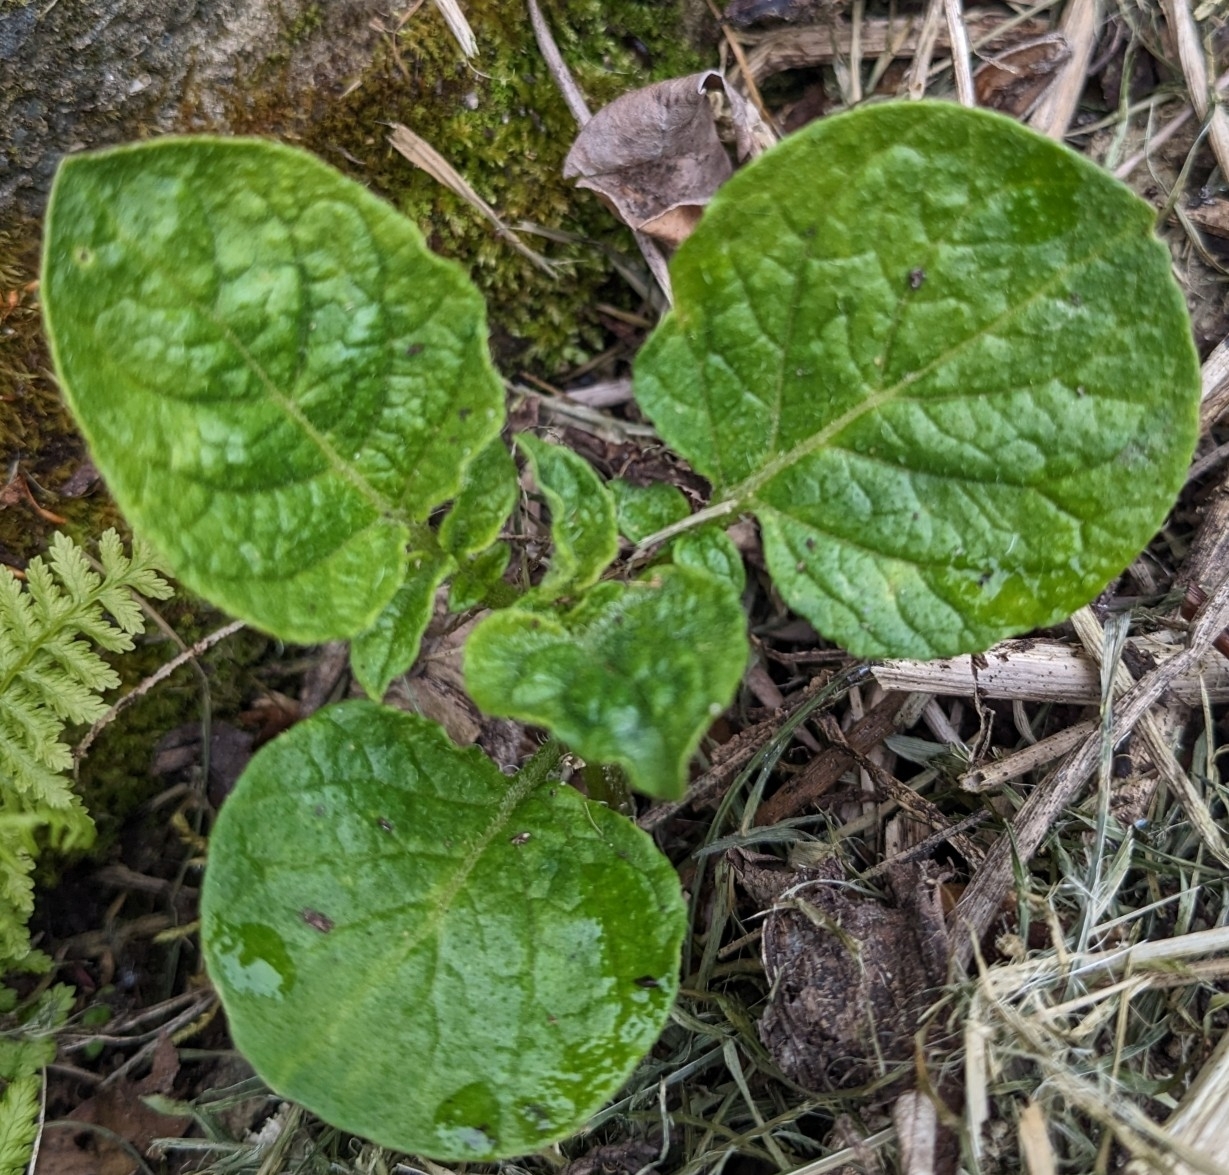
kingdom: Plantae
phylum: Tracheophyta
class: Magnoliopsida
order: Solanales
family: Solanaceae
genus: Solanum
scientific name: Solanum tuberosum
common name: Potato
